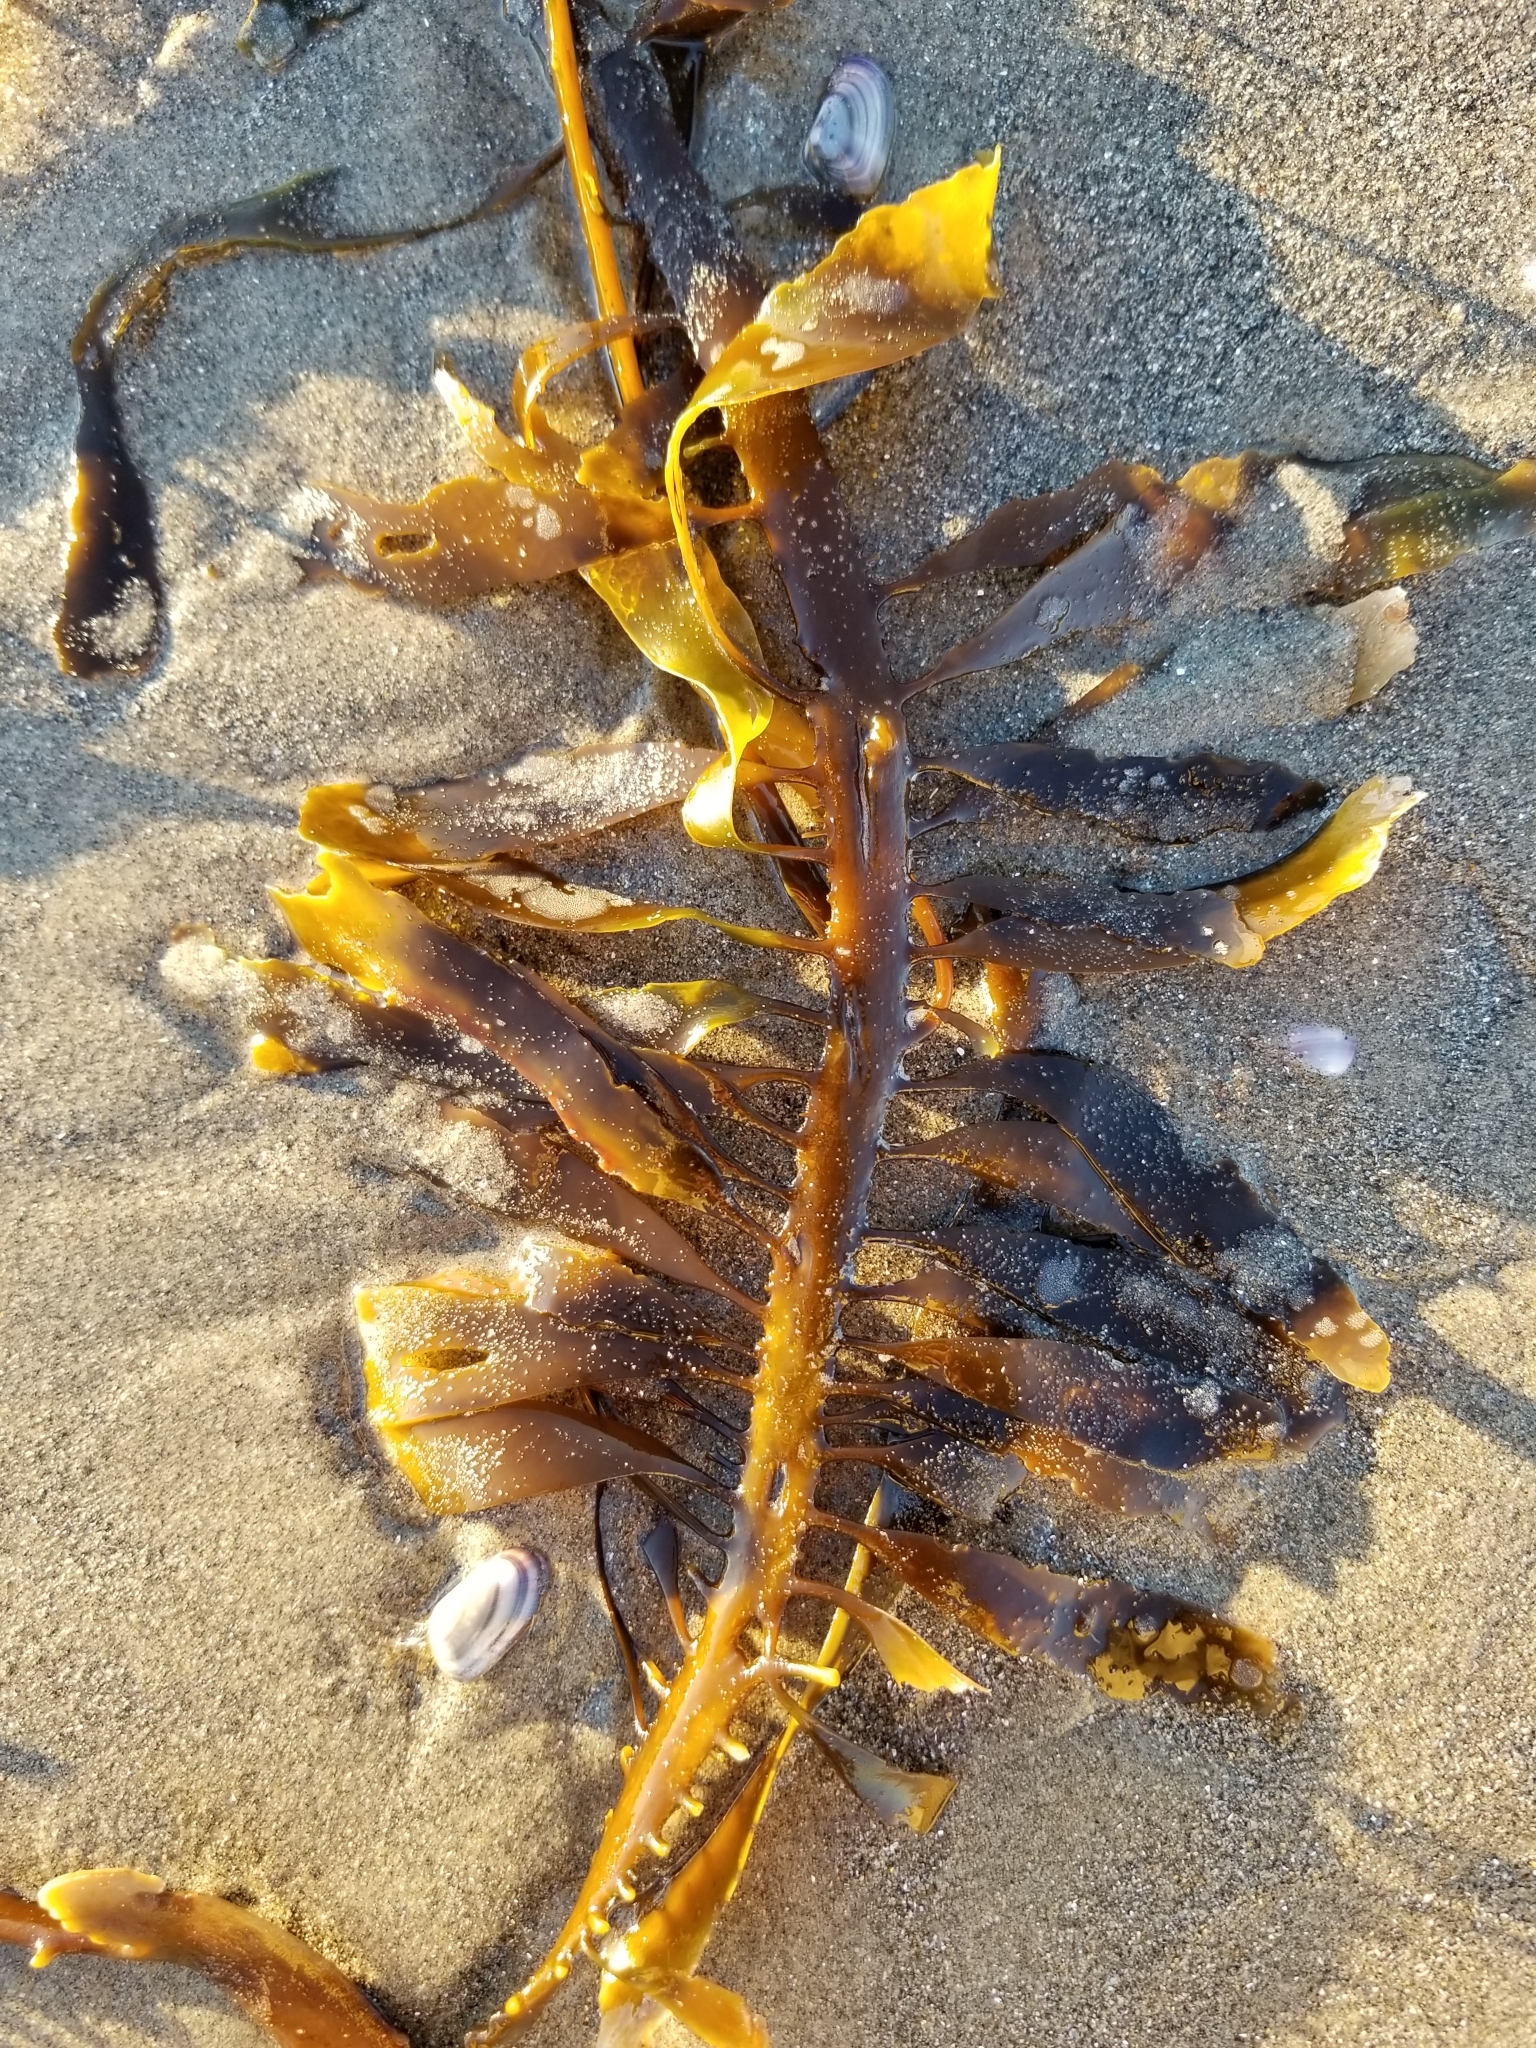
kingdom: Chromista
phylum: Ochrophyta
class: Phaeophyceae
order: Laminariales
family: Lessoniaceae
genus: Egregia
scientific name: Egregia menziesii
